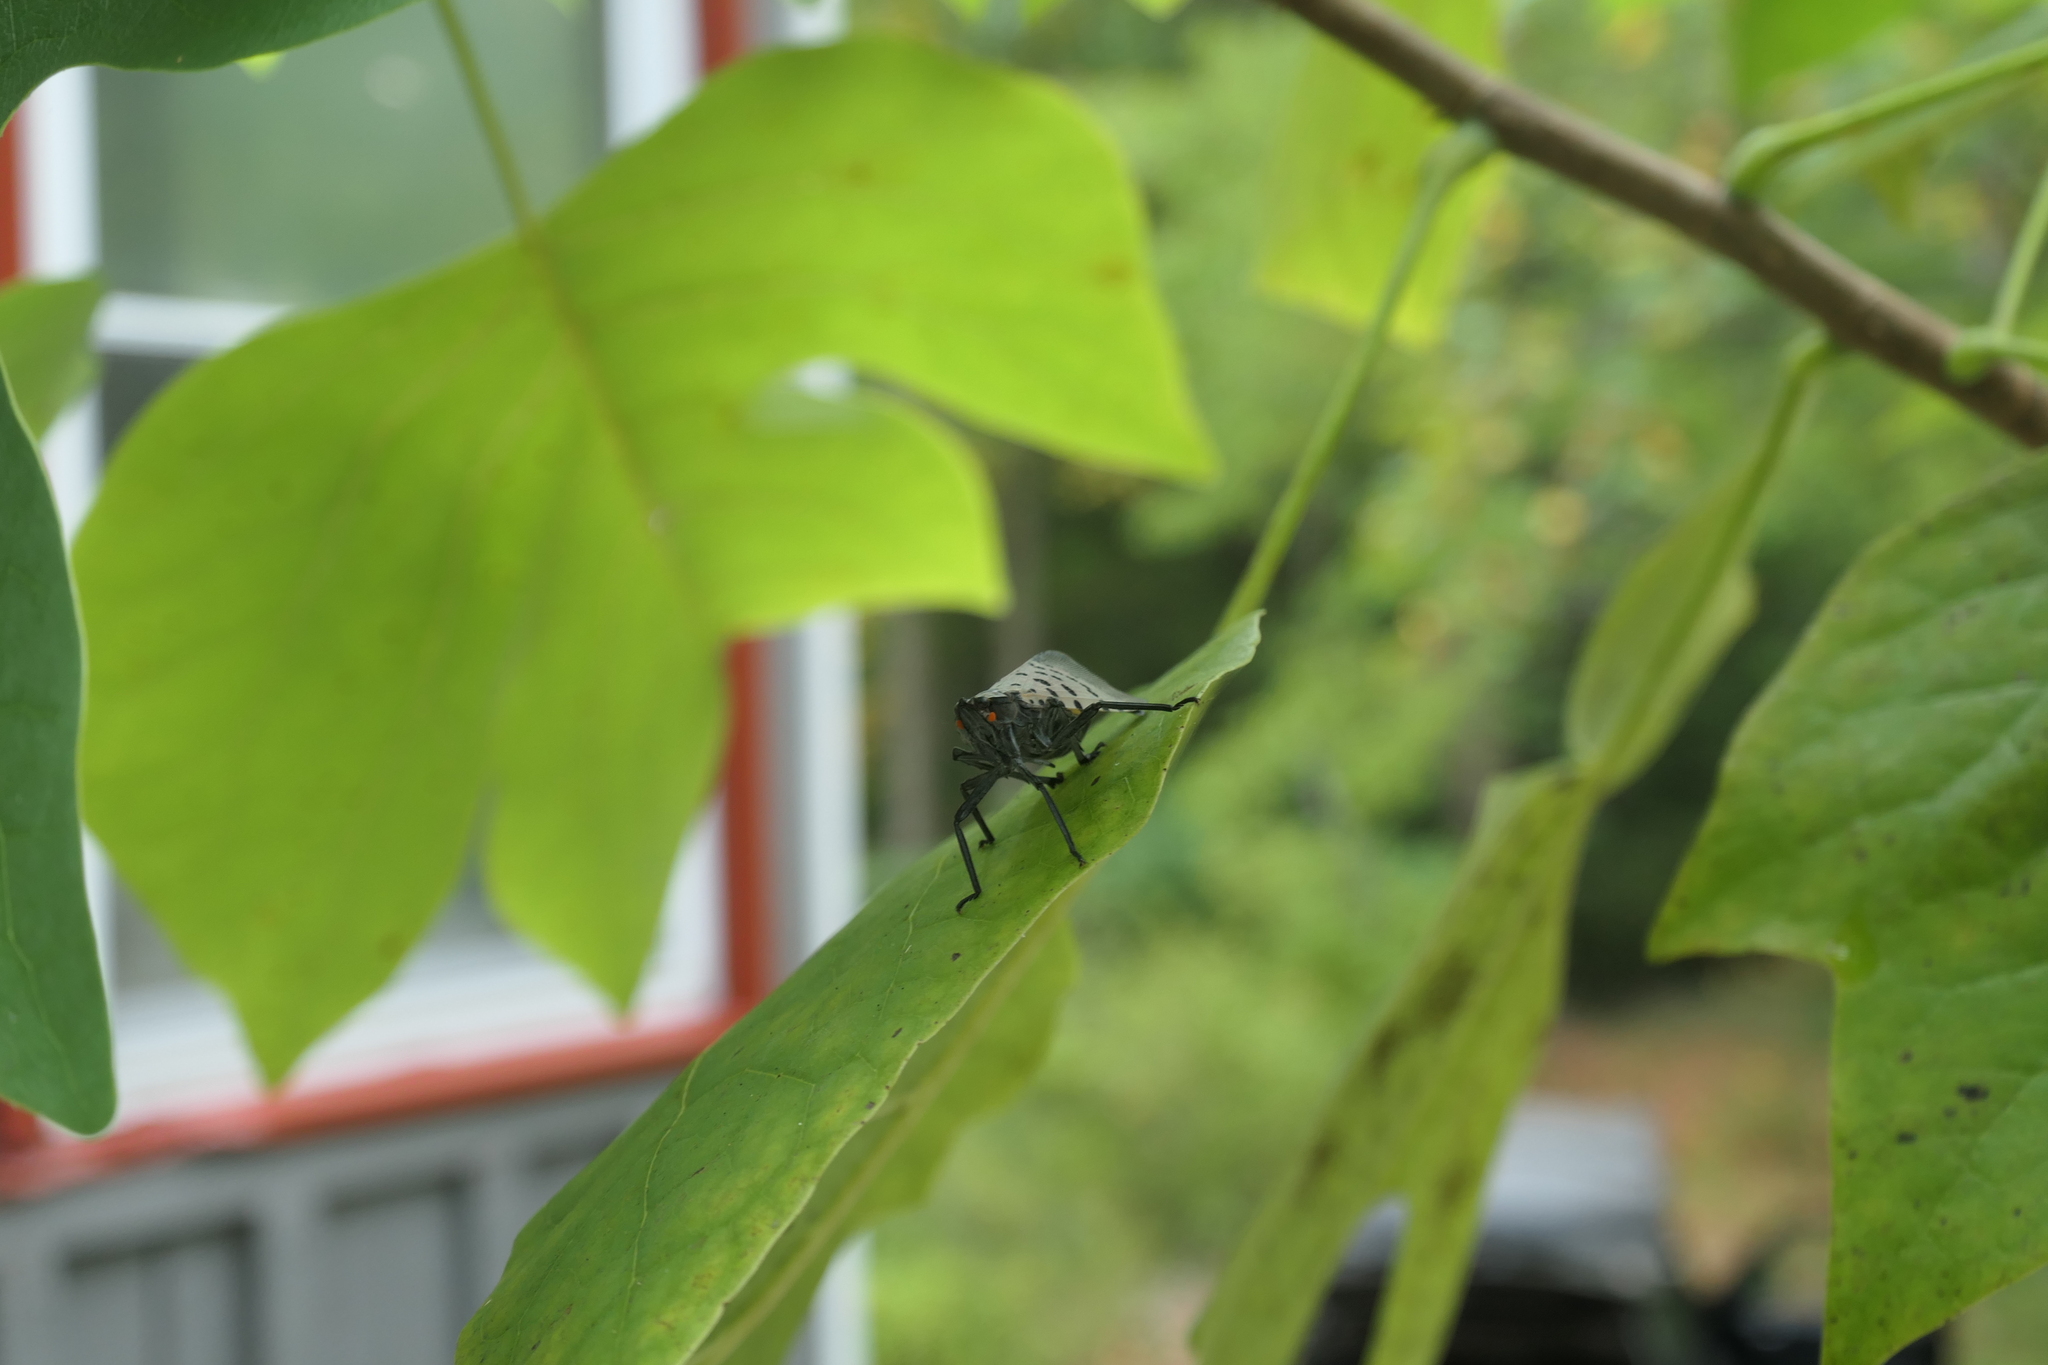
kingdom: Animalia
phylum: Arthropoda
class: Insecta
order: Hemiptera
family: Fulgoridae
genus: Lycorma
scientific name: Lycorma delicatula
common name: Spotted lanternfly
